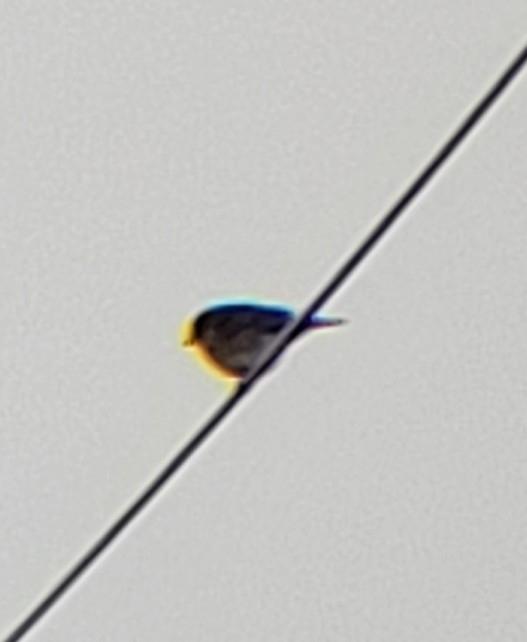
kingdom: Animalia
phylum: Chordata
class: Aves
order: Passeriformes
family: Turdidae
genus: Sialia
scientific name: Sialia sialis
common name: Eastern bluebird
